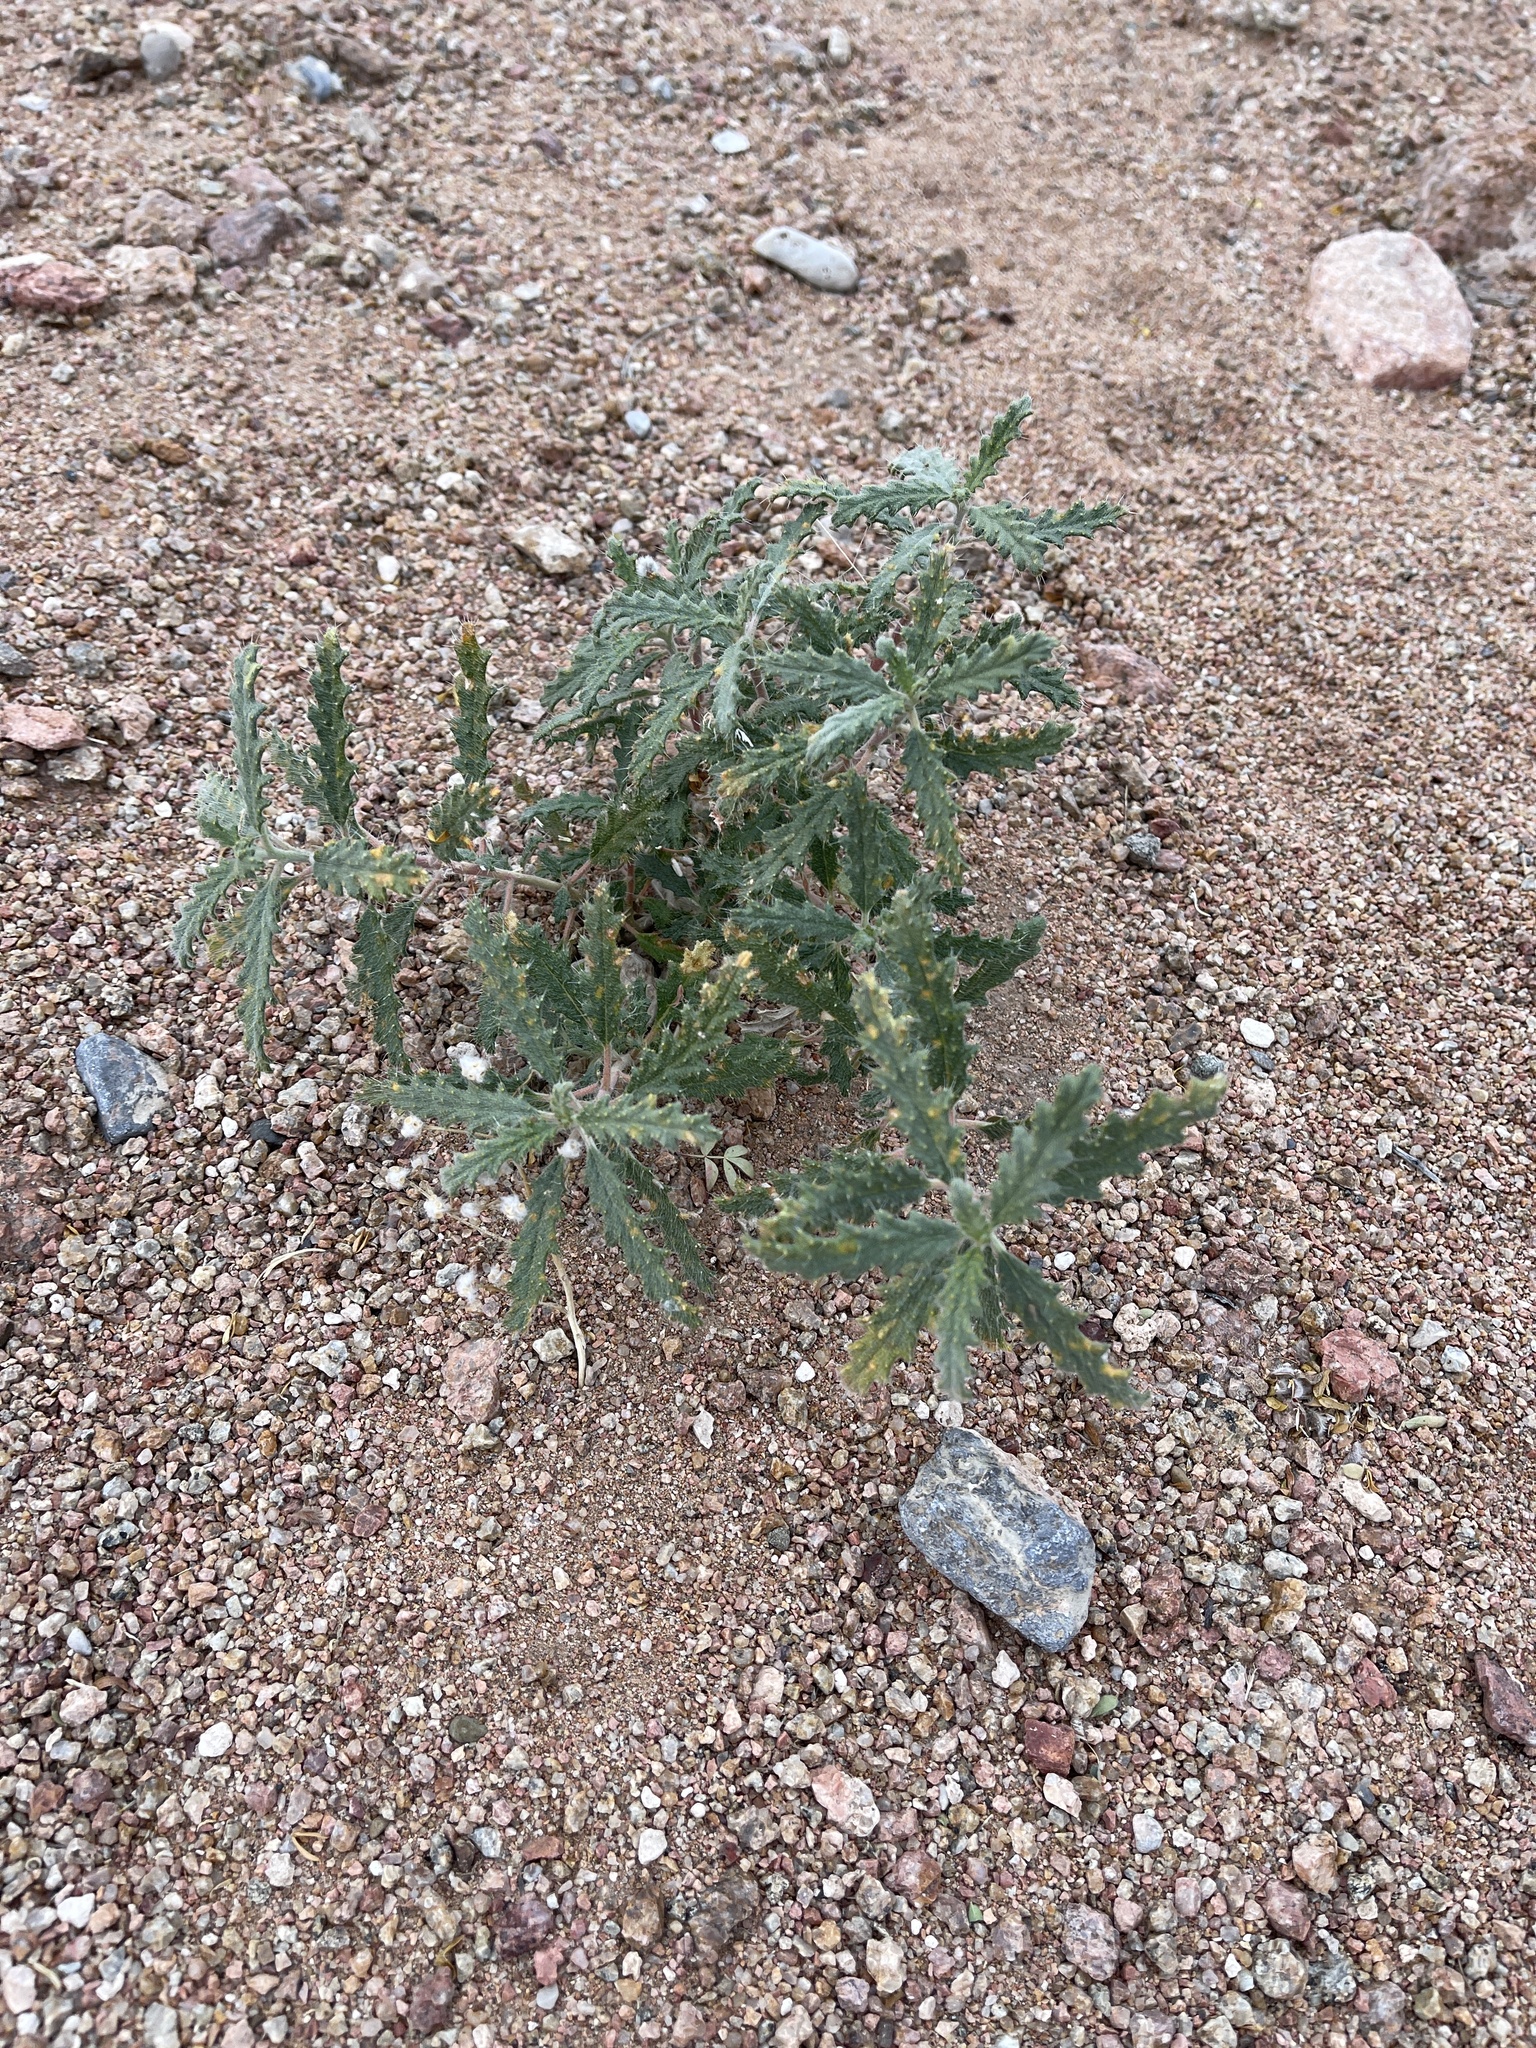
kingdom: Plantae
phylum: Tracheophyta
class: Magnoliopsida
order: Cornales
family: Loasaceae
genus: Cevallia
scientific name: Cevallia sinuata
